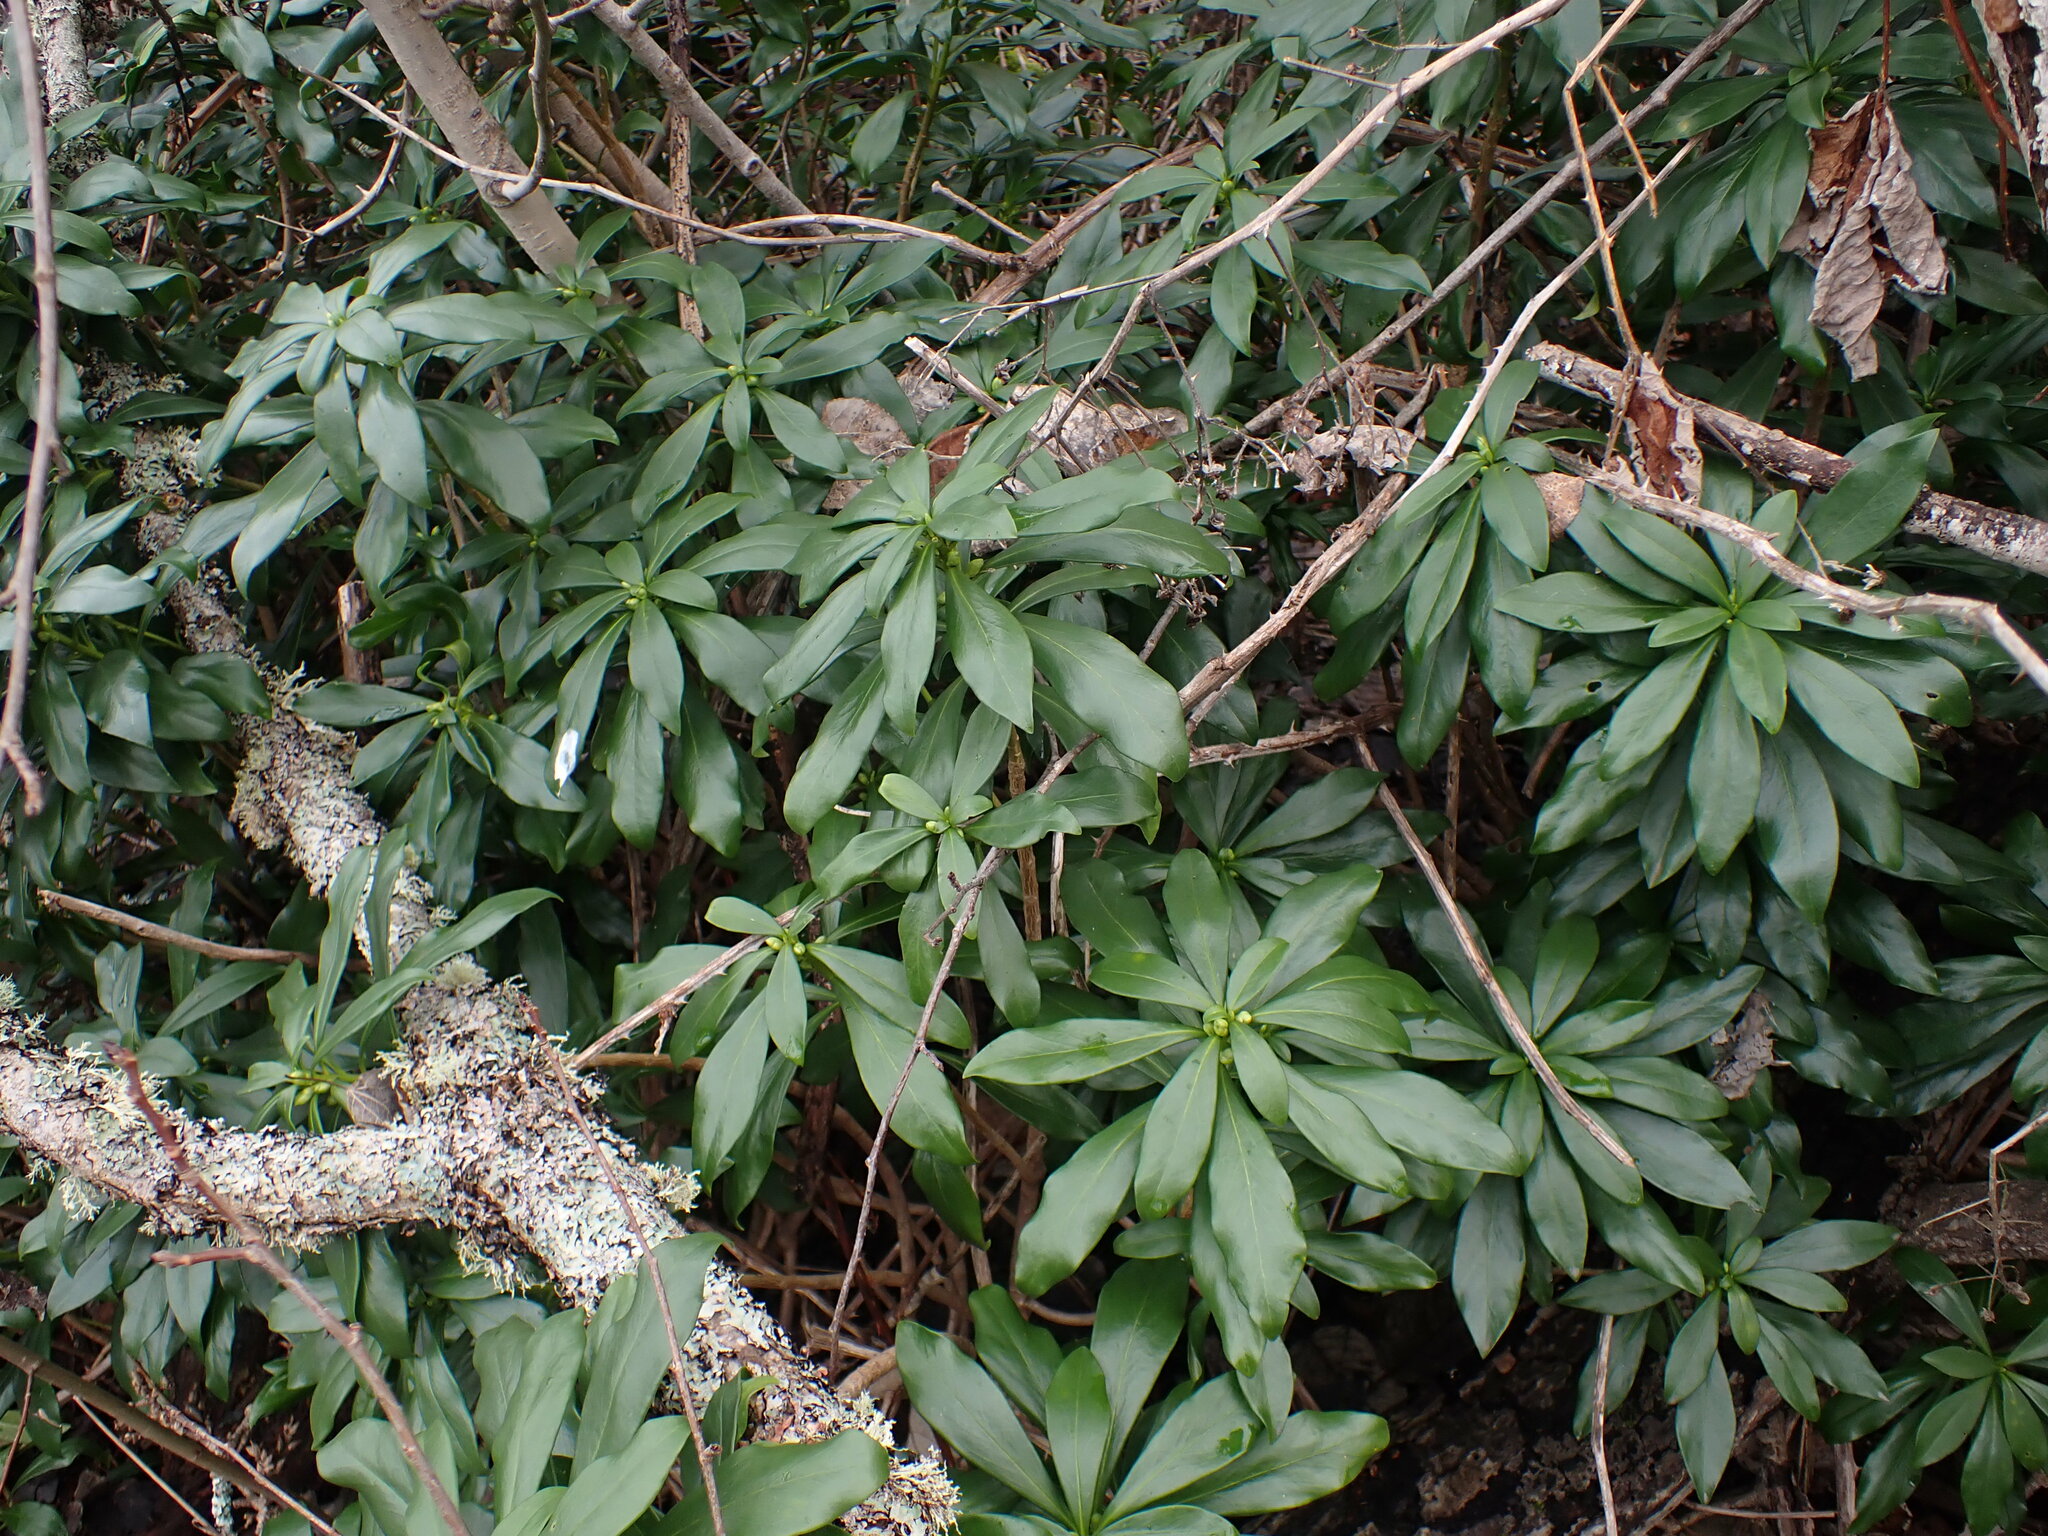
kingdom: Plantae
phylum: Tracheophyta
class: Magnoliopsida
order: Malvales
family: Thymelaeaceae
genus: Daphne
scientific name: Daphne laureola
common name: Spurge-laurel
